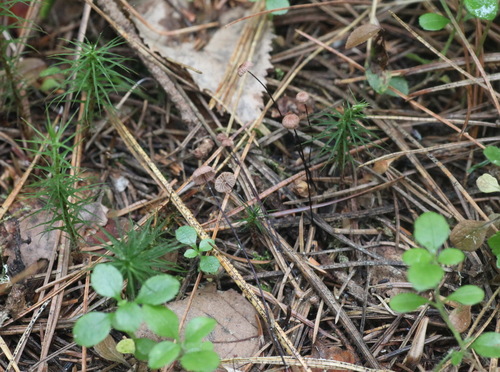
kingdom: Fungi
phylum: Basidiomycota
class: Agaricomycetes
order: Agaricales
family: Omphalotaceae
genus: Gymnopus
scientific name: Gymnopus androsaceus
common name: Horse-hair fungus
